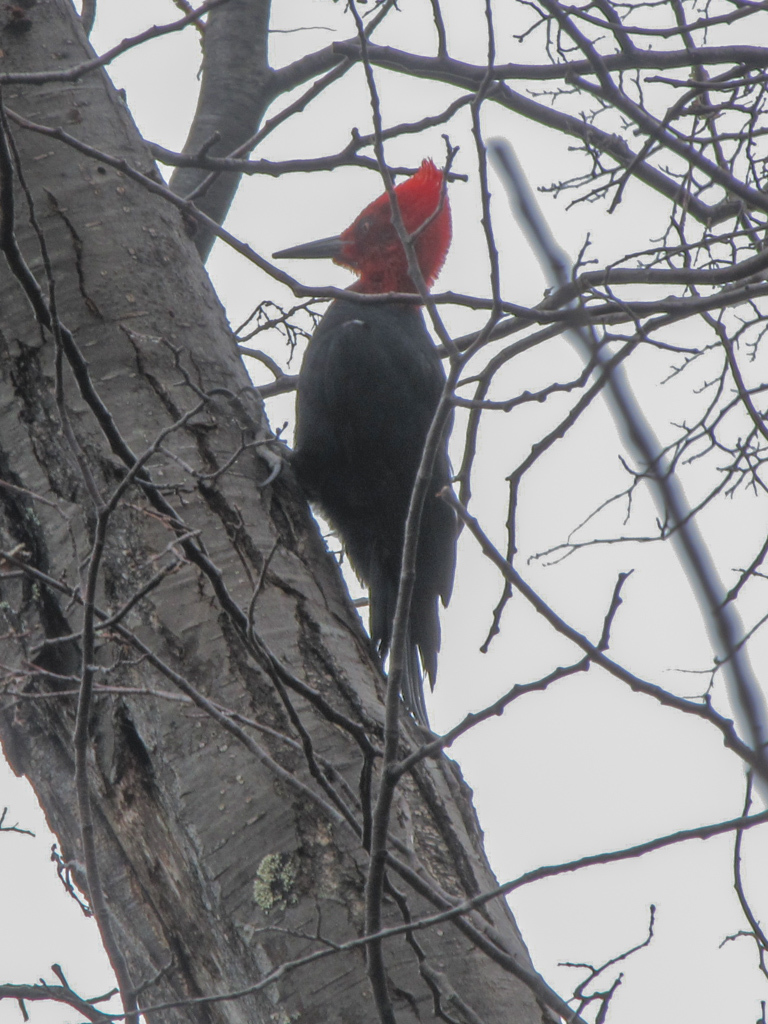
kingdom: Animalia
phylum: Chordata
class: Aves
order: Piciformes
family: Picidae
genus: Campephilus
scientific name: Campephilus magellanicus
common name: Magellanic woodpecker
